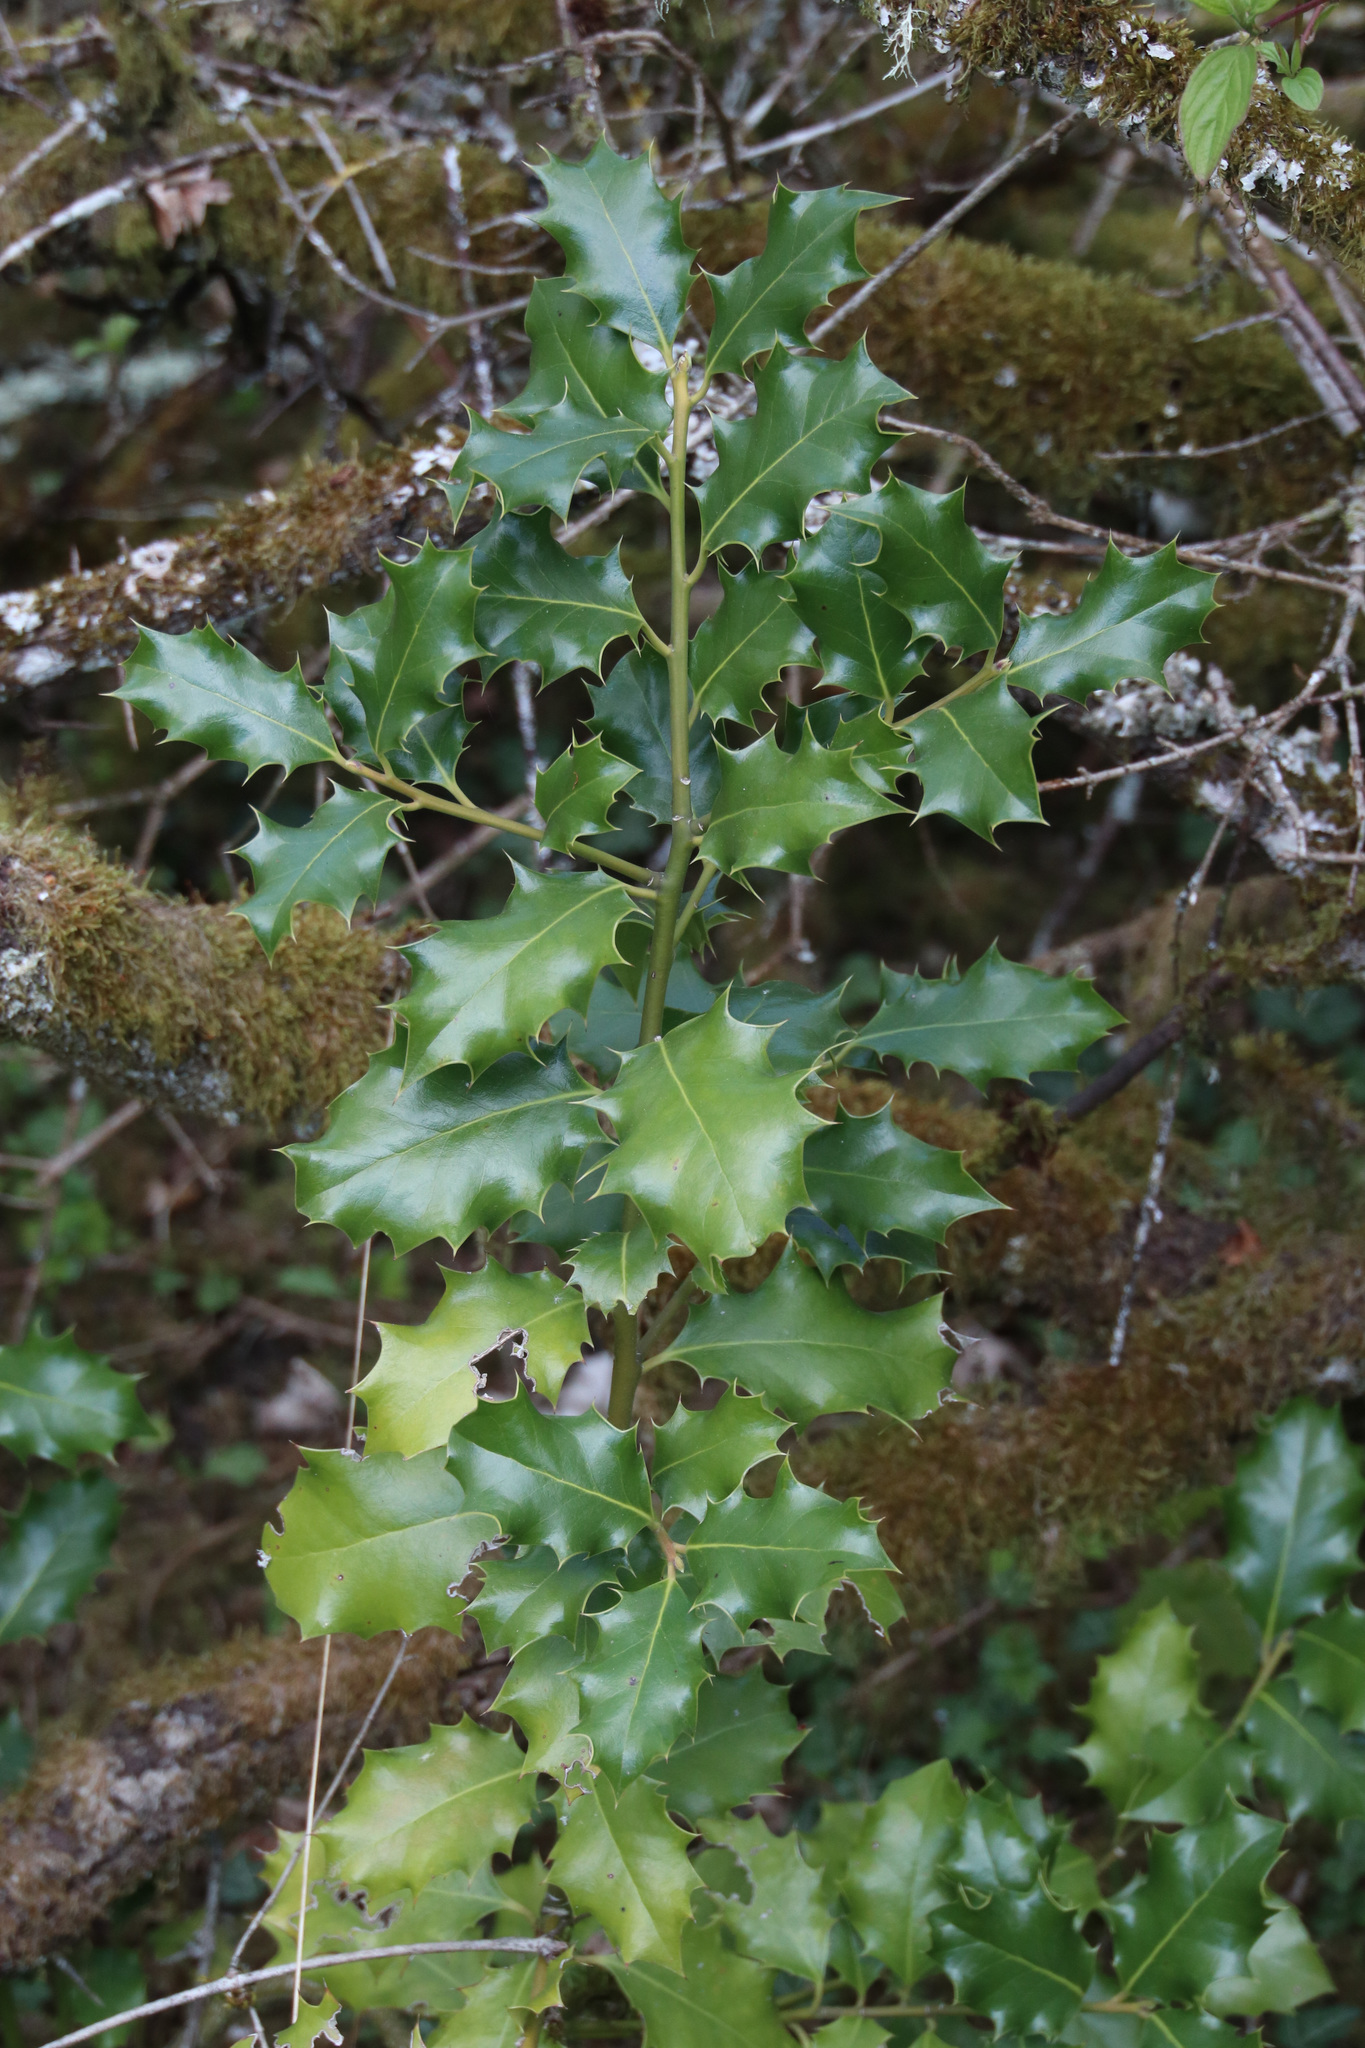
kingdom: Plantae
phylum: Tracheophyta
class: Magnoliopsida
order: Aquifoliales
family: Aquifoliaceae
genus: Ilex
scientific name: Ilex aquifolium
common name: English holly
